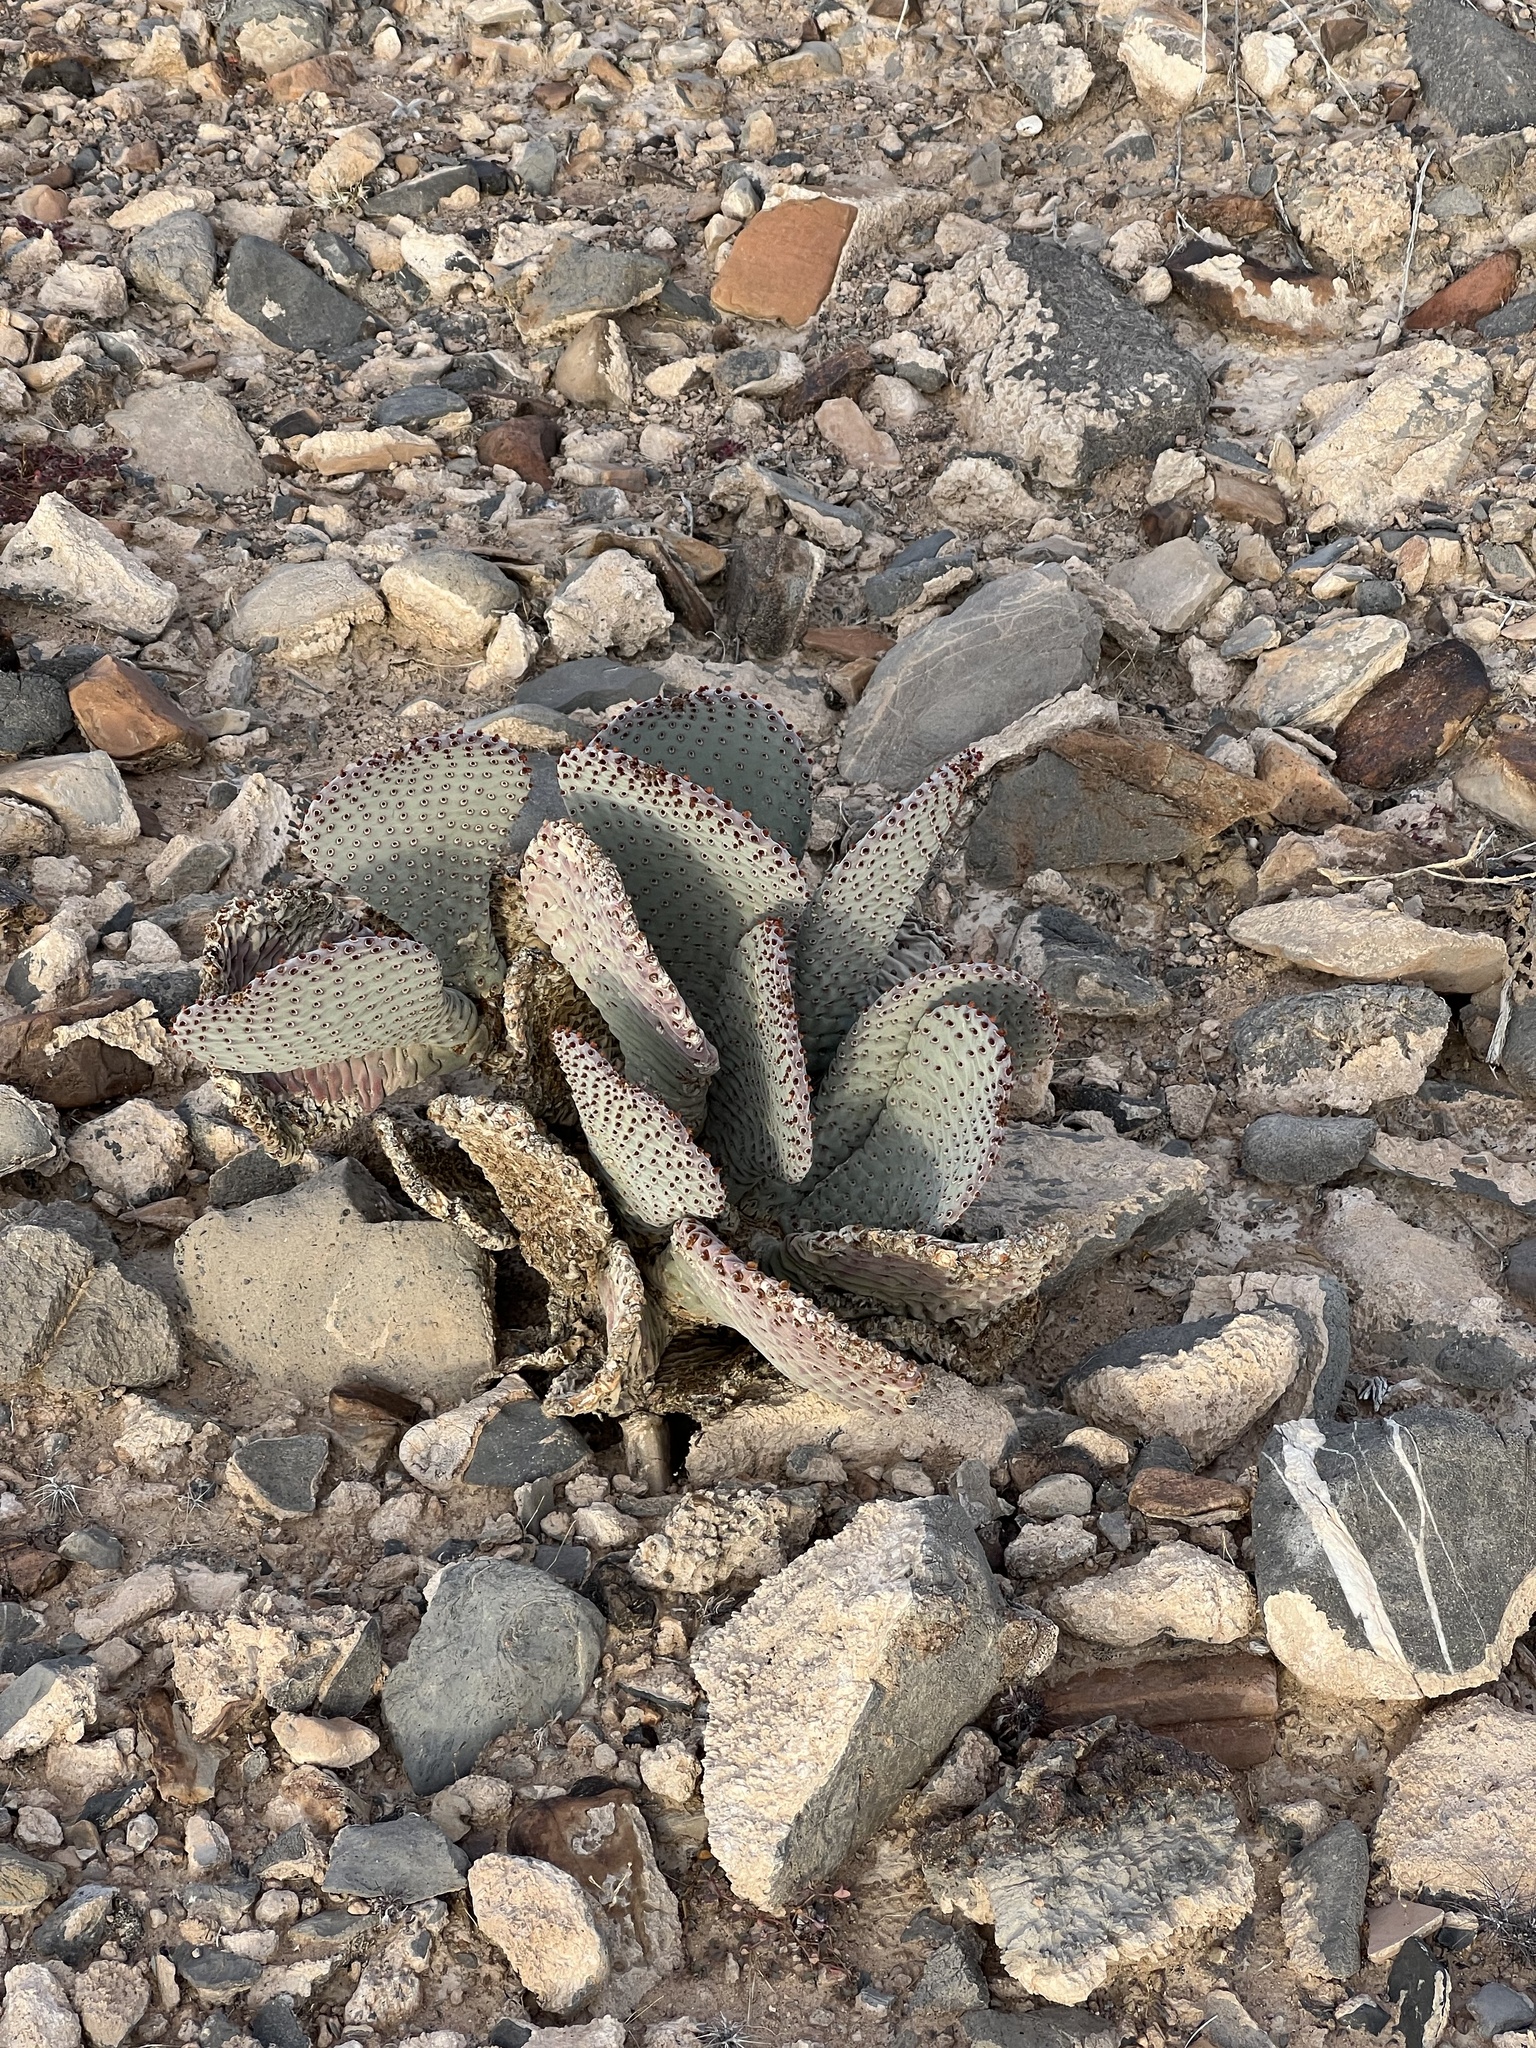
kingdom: Plantae
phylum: Tracheophyta
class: Magnoliopsida
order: Caryophyllales
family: Cactaceae
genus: Opuntia
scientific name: Opuntia basilaris
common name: Beavertail prickly-pear
